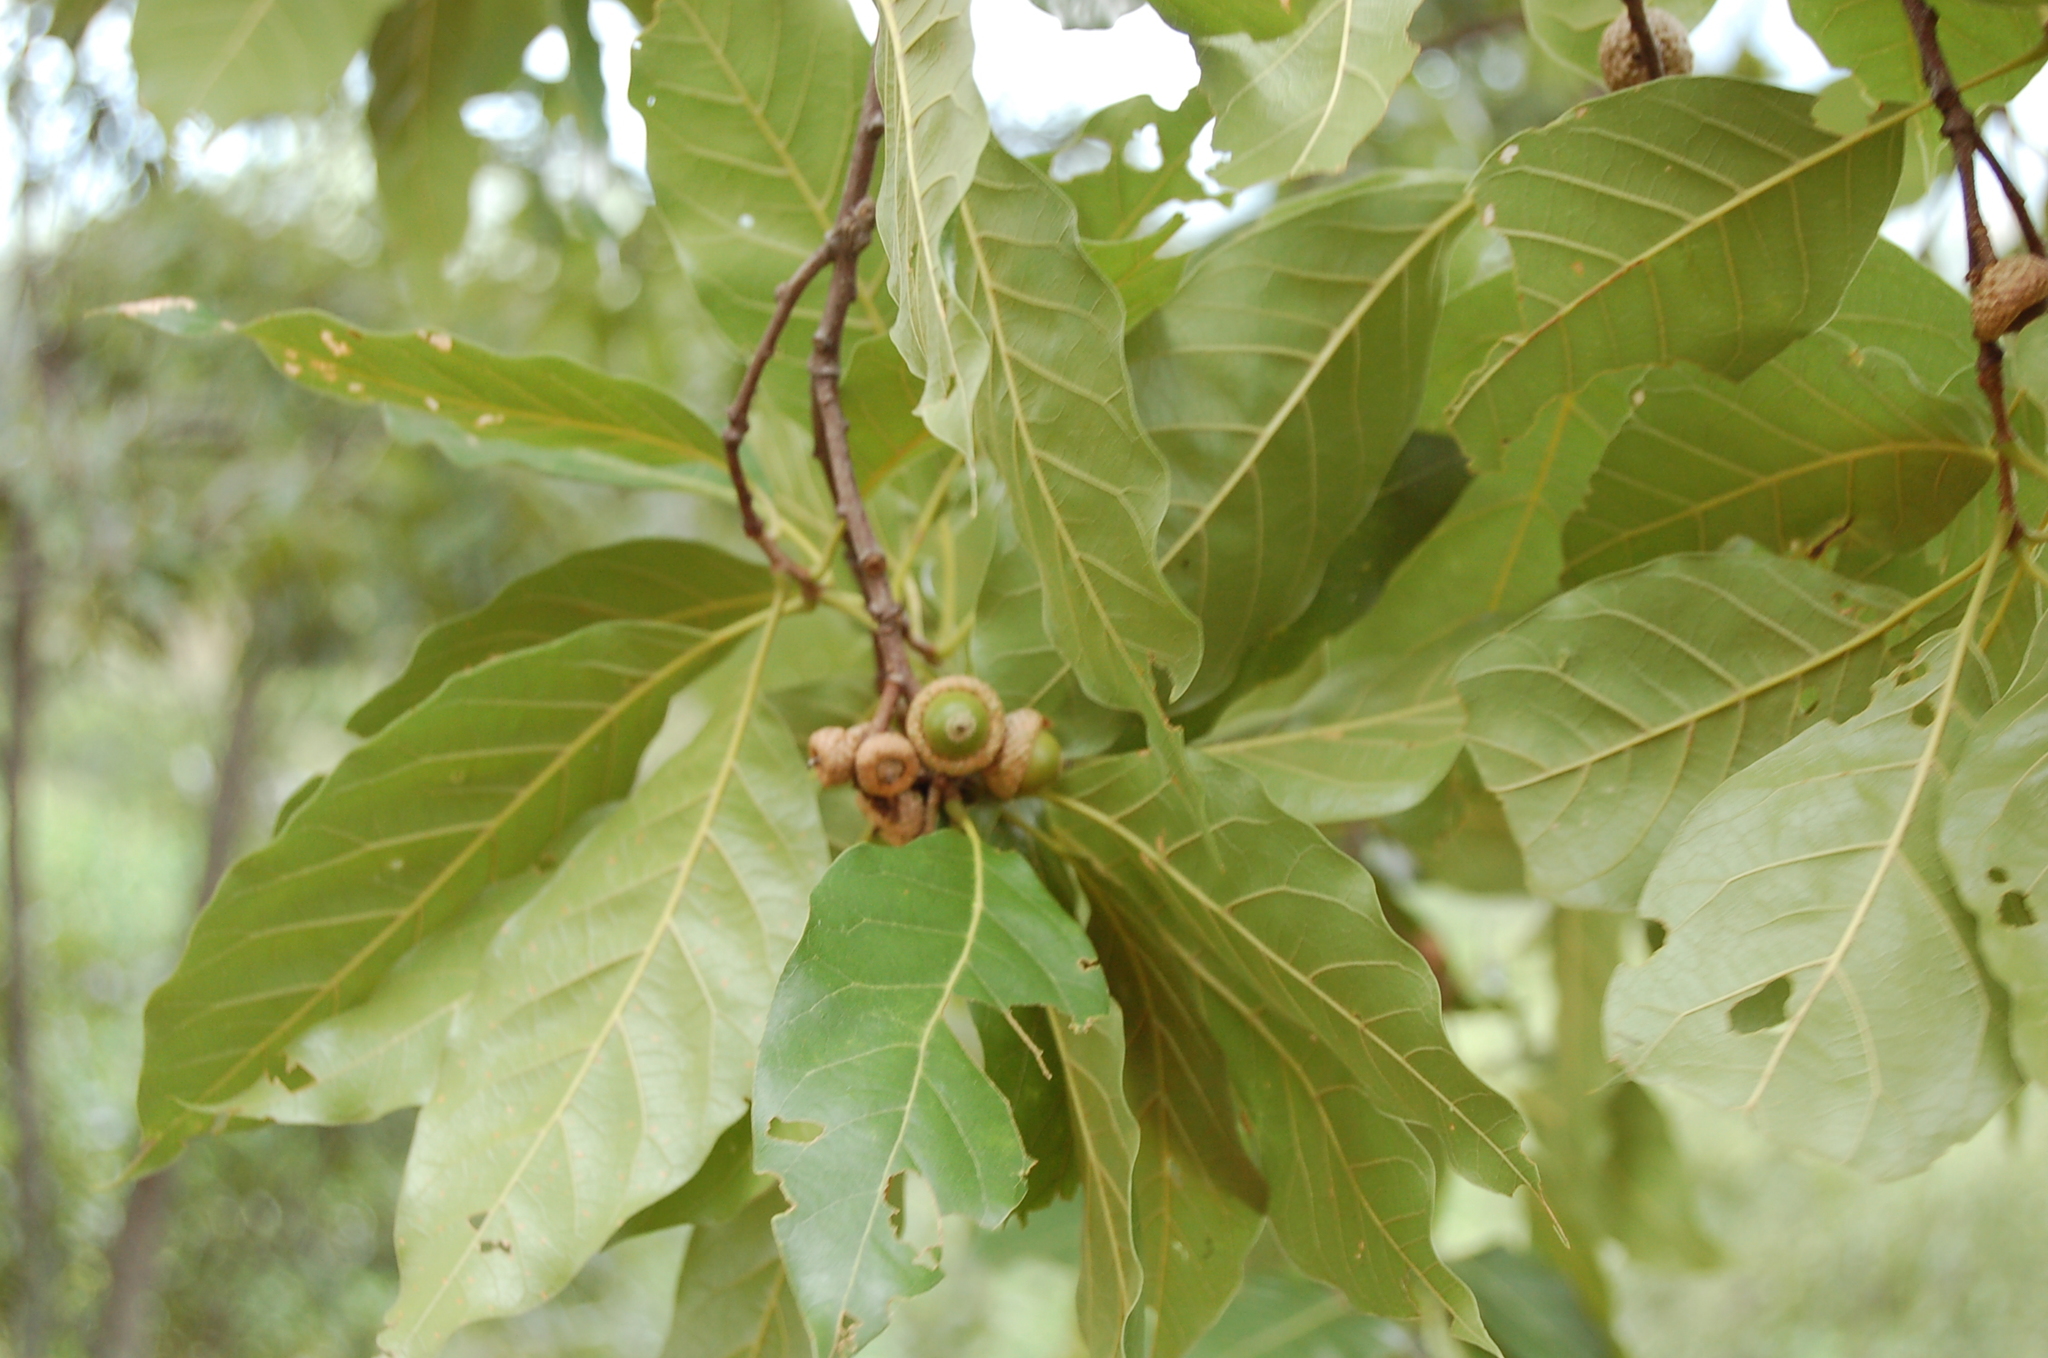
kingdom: Plantae
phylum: Tracheophyta
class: Magnoliopsida
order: Fagales
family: Fagaceae
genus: Quercus
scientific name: Quercus acutifolia
